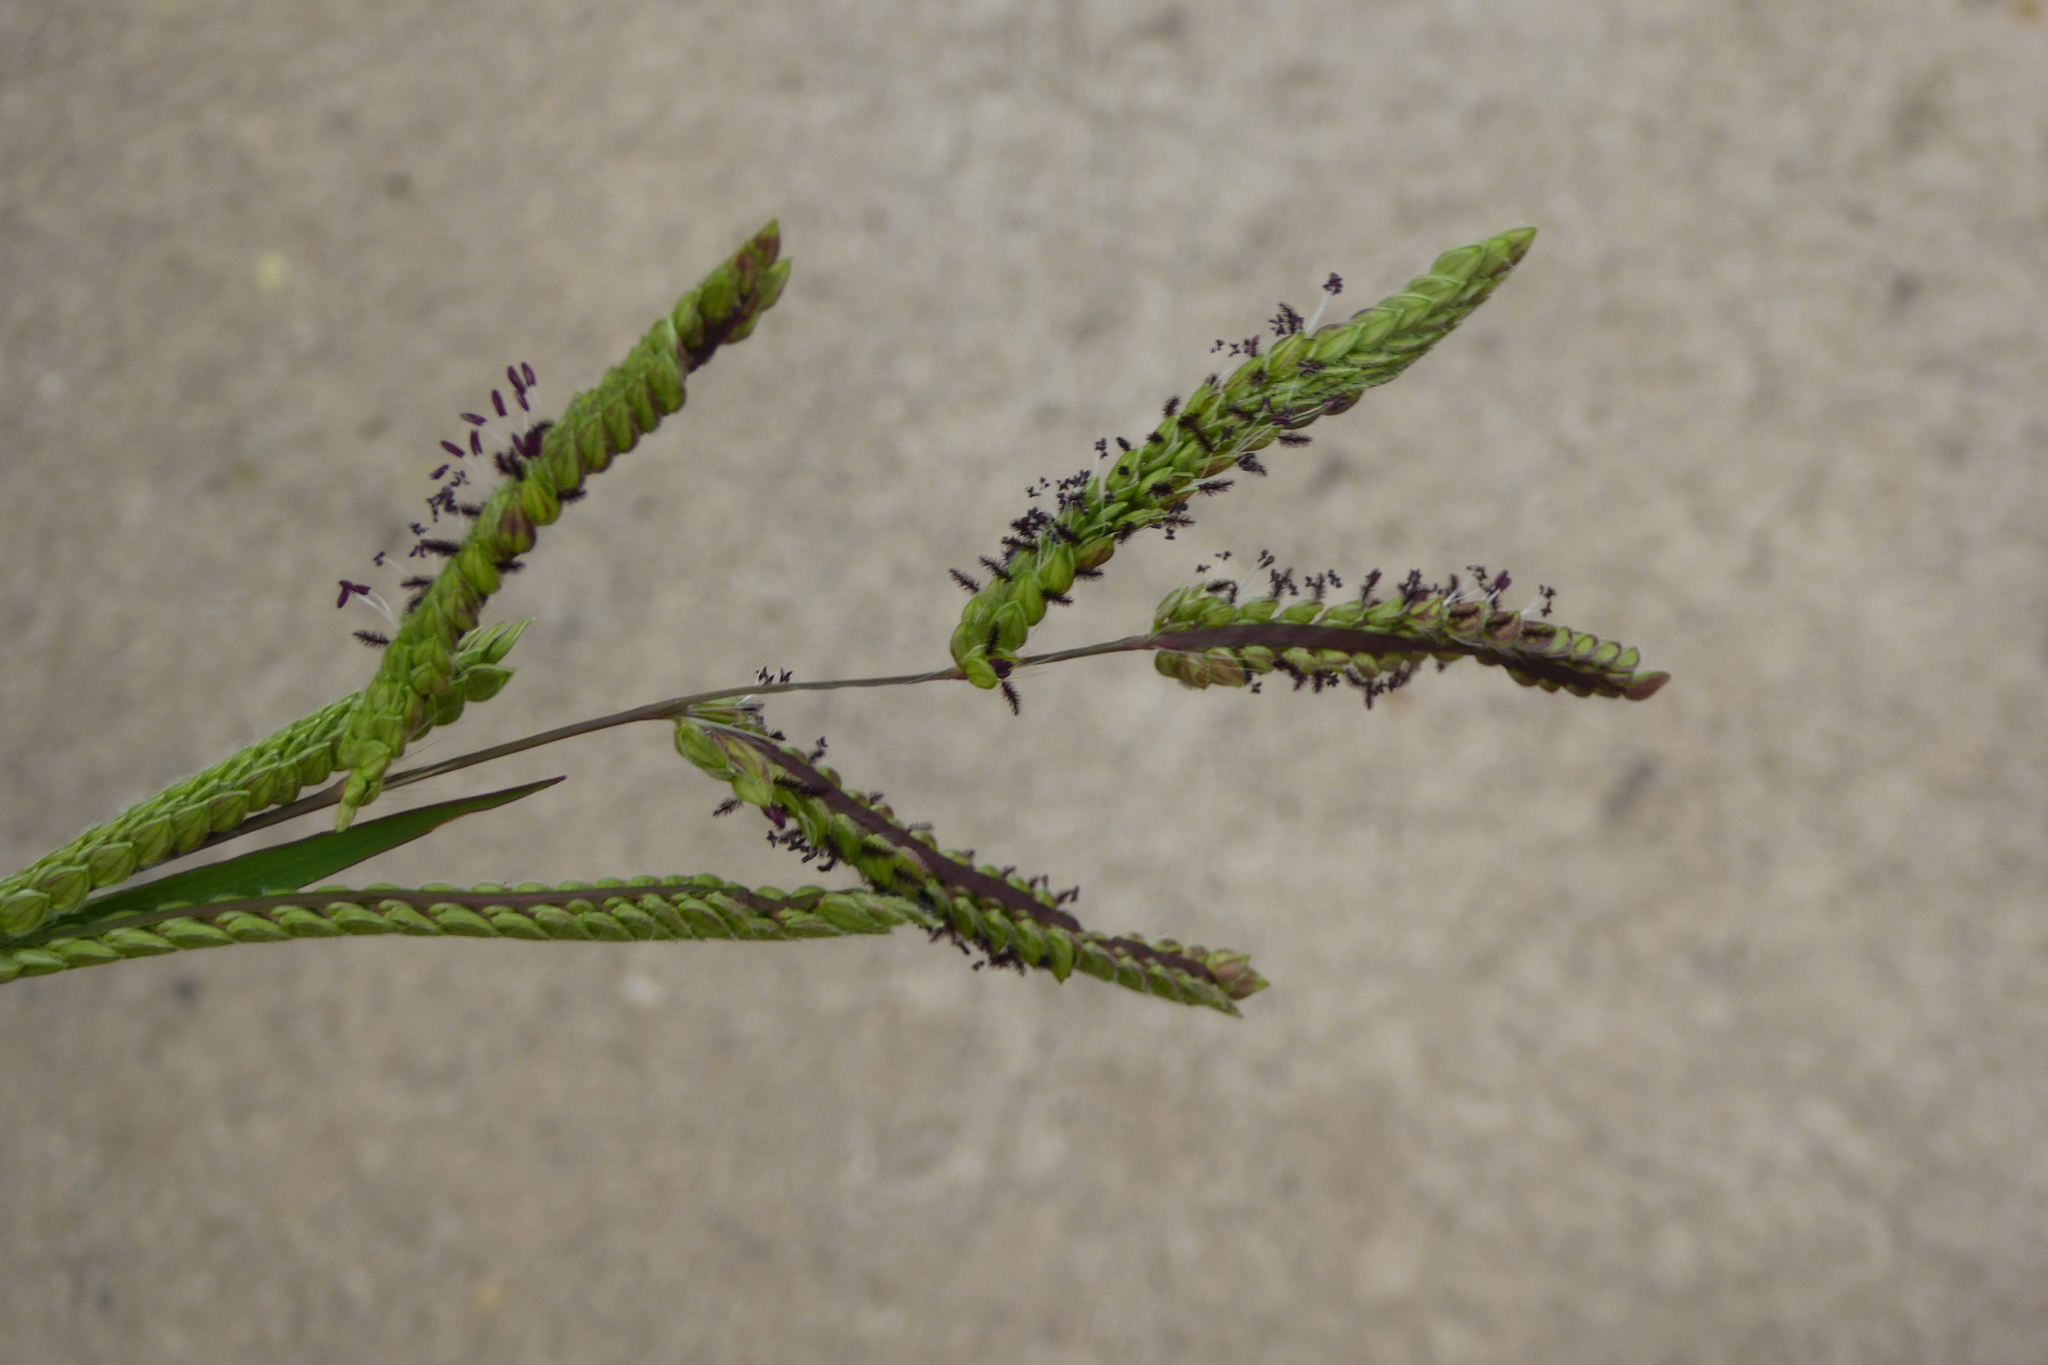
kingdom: Plantae
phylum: Tracheophyta
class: Liliopsida
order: Poales
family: Poaceae
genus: Paspalum
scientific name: Paspalum dilatatum
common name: Dallisgrass
